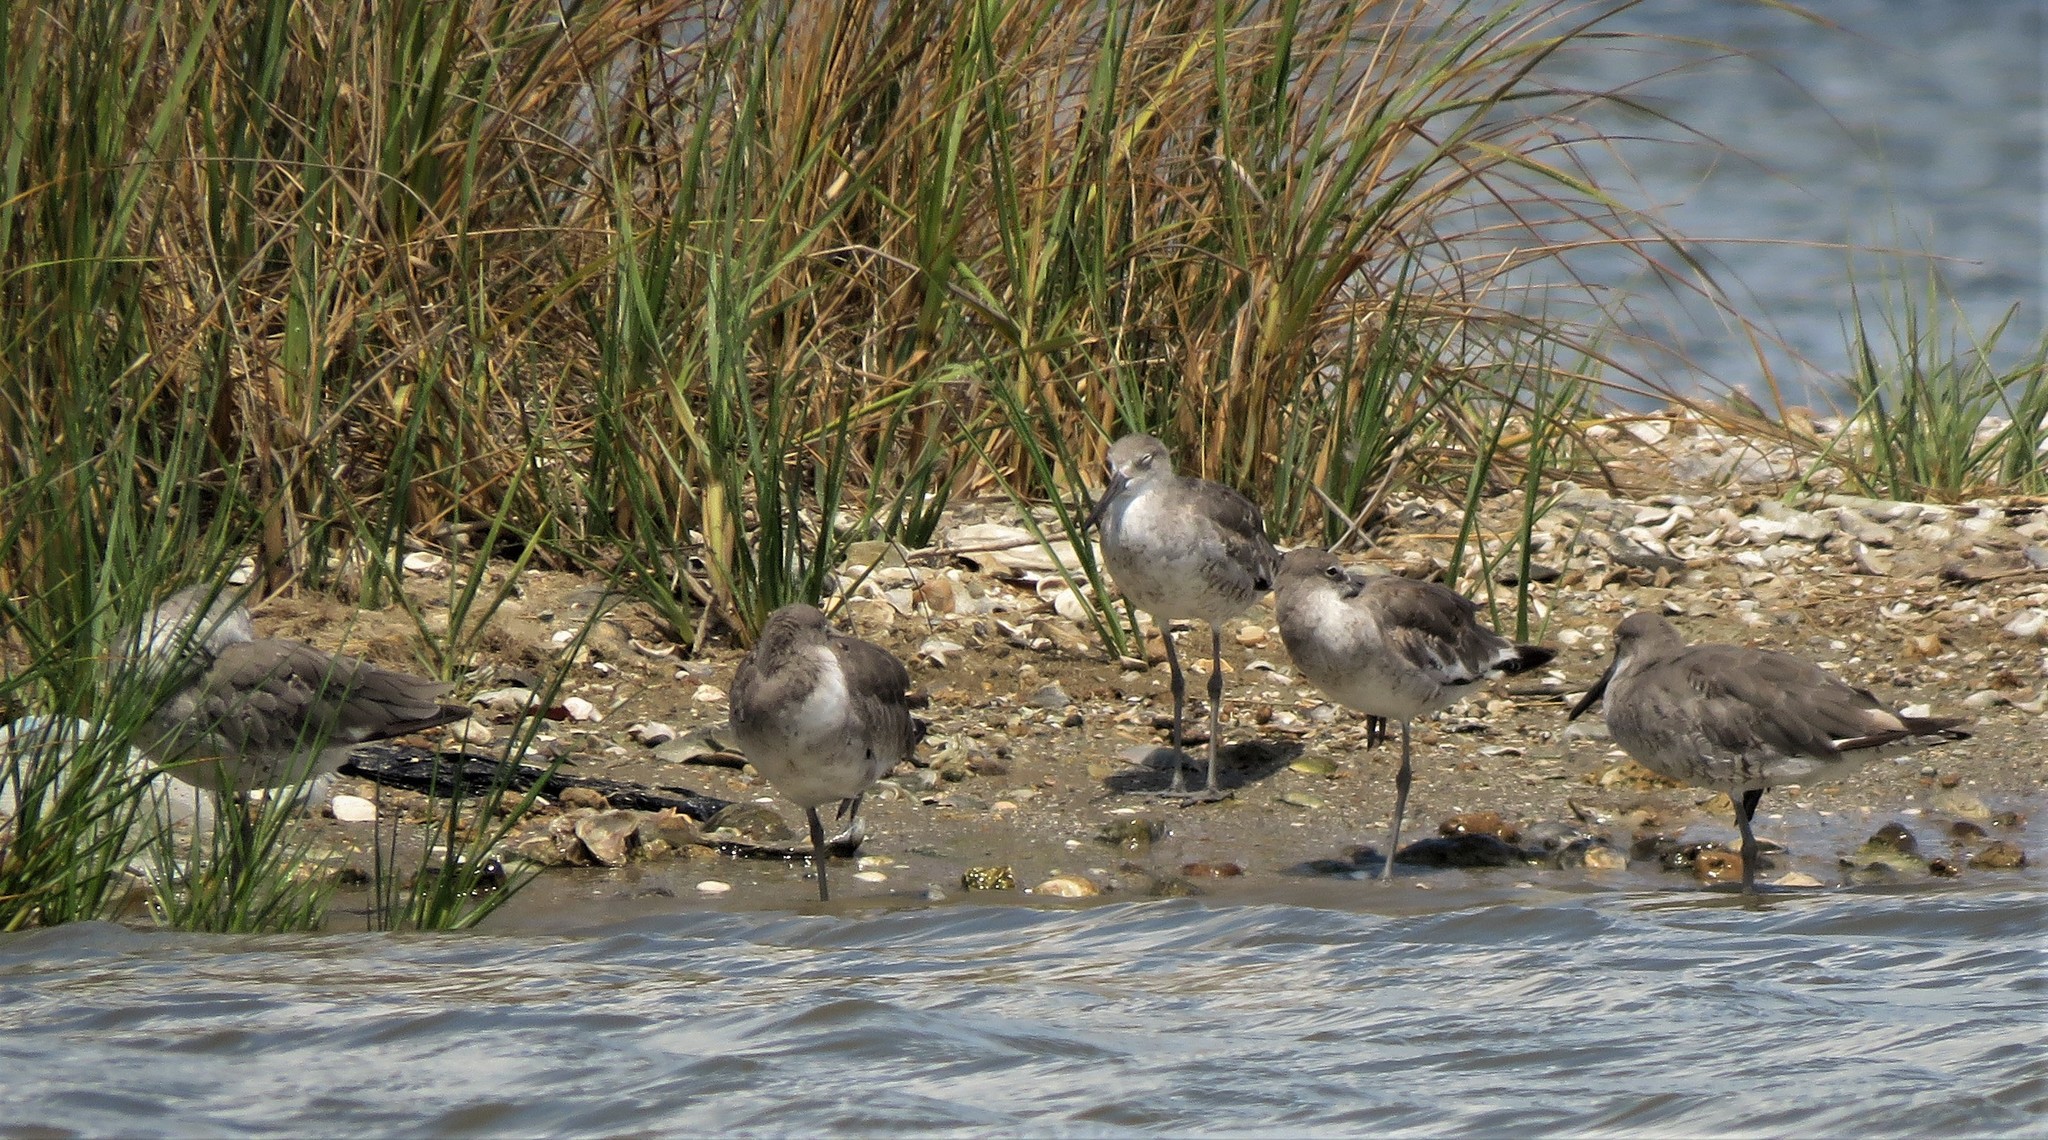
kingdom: Animalia
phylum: Chordata
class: Aves
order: Charadriiformes
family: Scolopacidae
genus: Tringa
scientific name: Tringa semipalmata
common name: Willet
